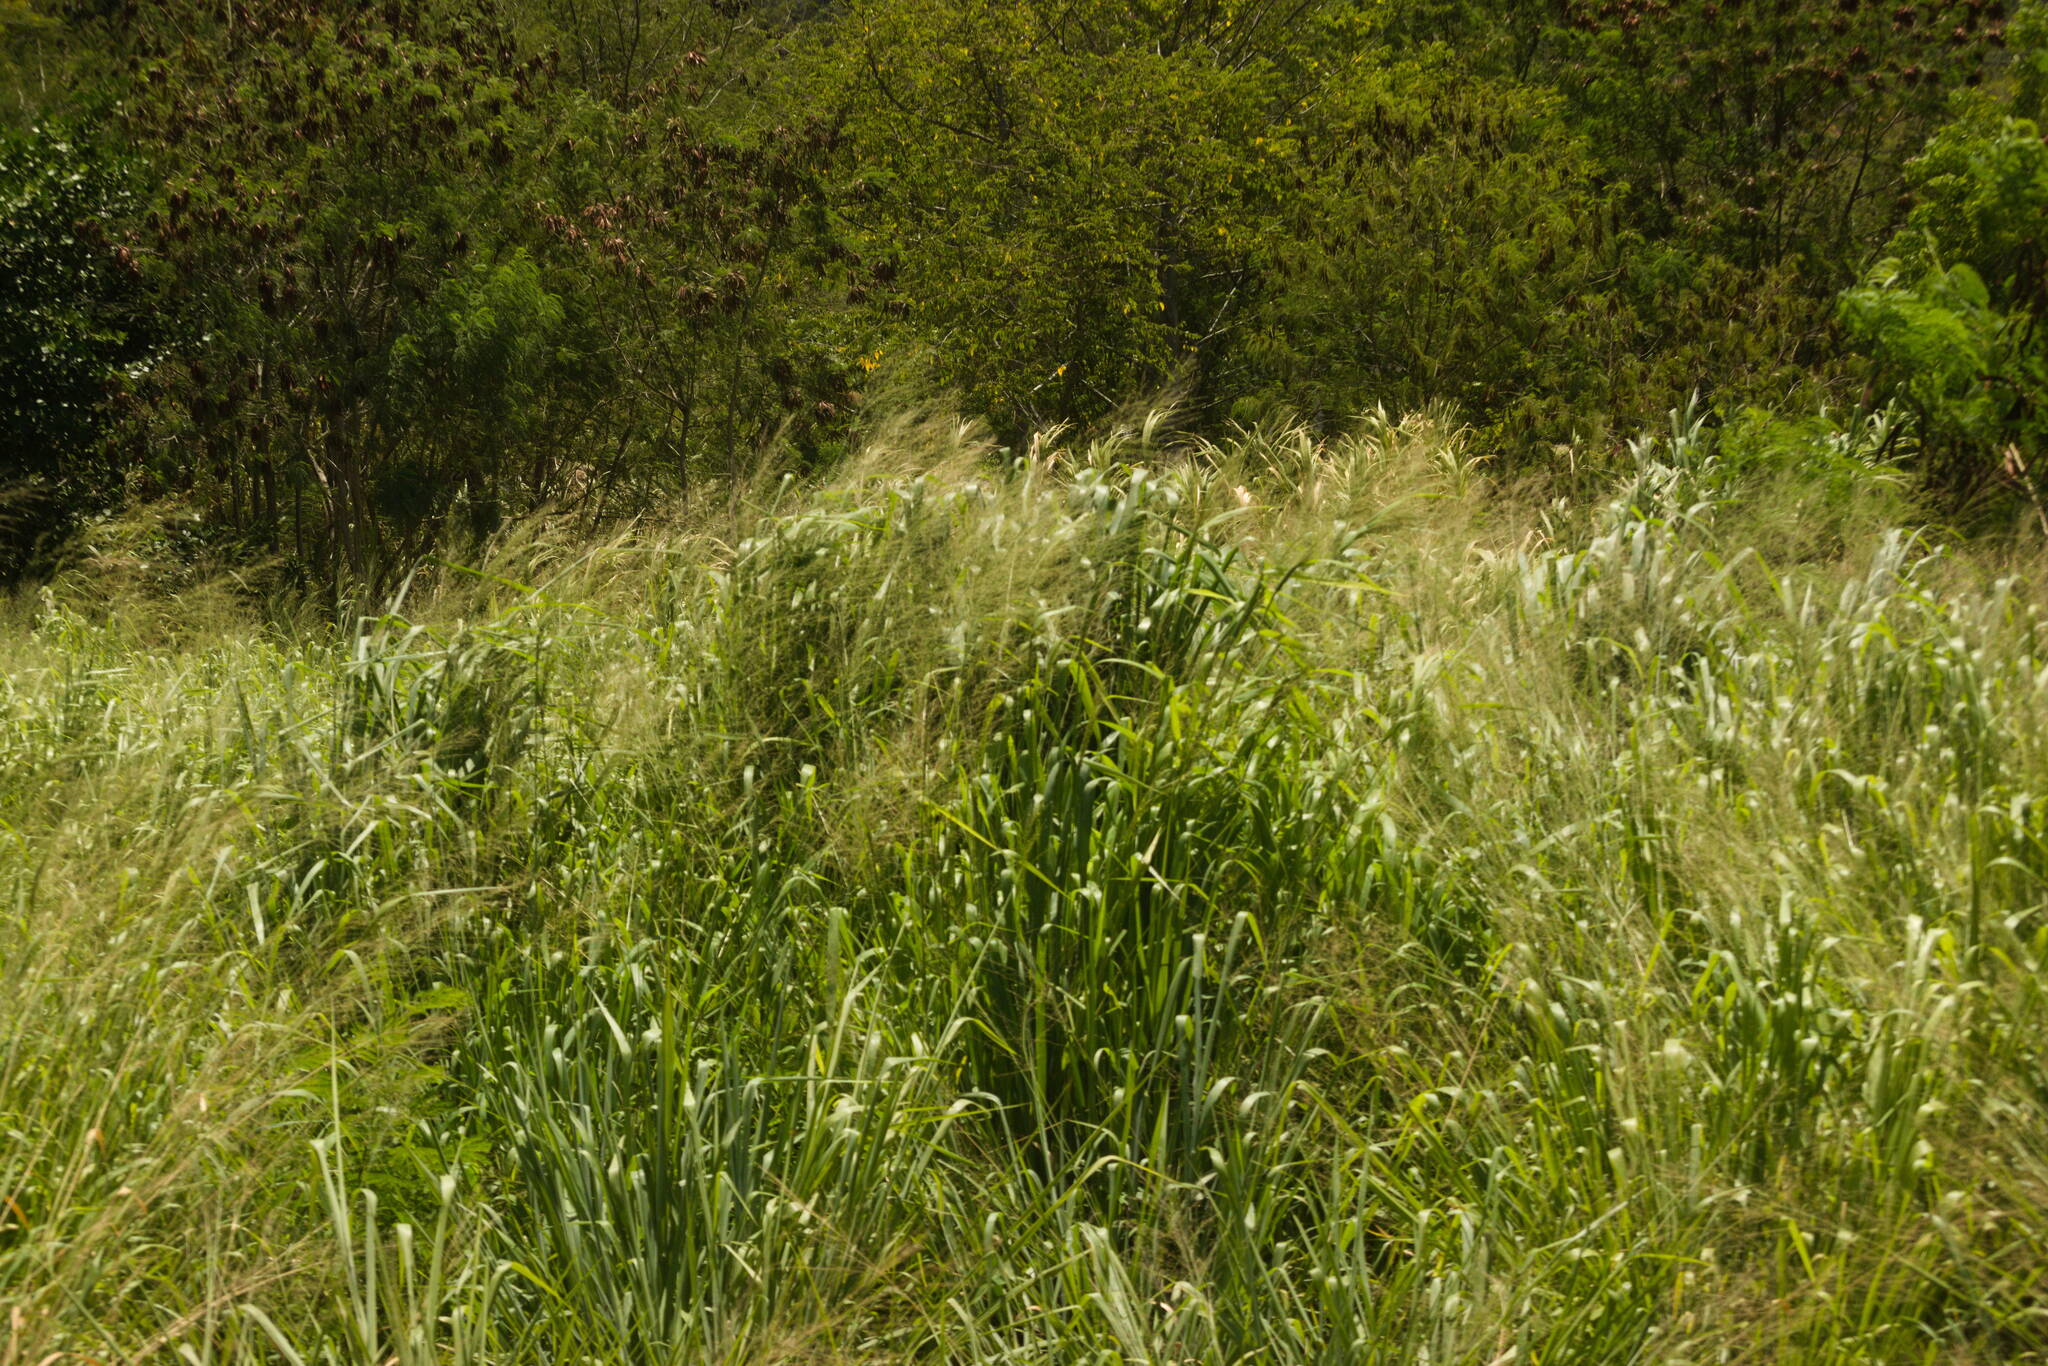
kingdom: Plantae
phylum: Tracheophyta
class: Liliopsida
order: Poales
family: Poaceae
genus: Megathyrsus
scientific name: Megathyrsus maximus
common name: Guineagrass
